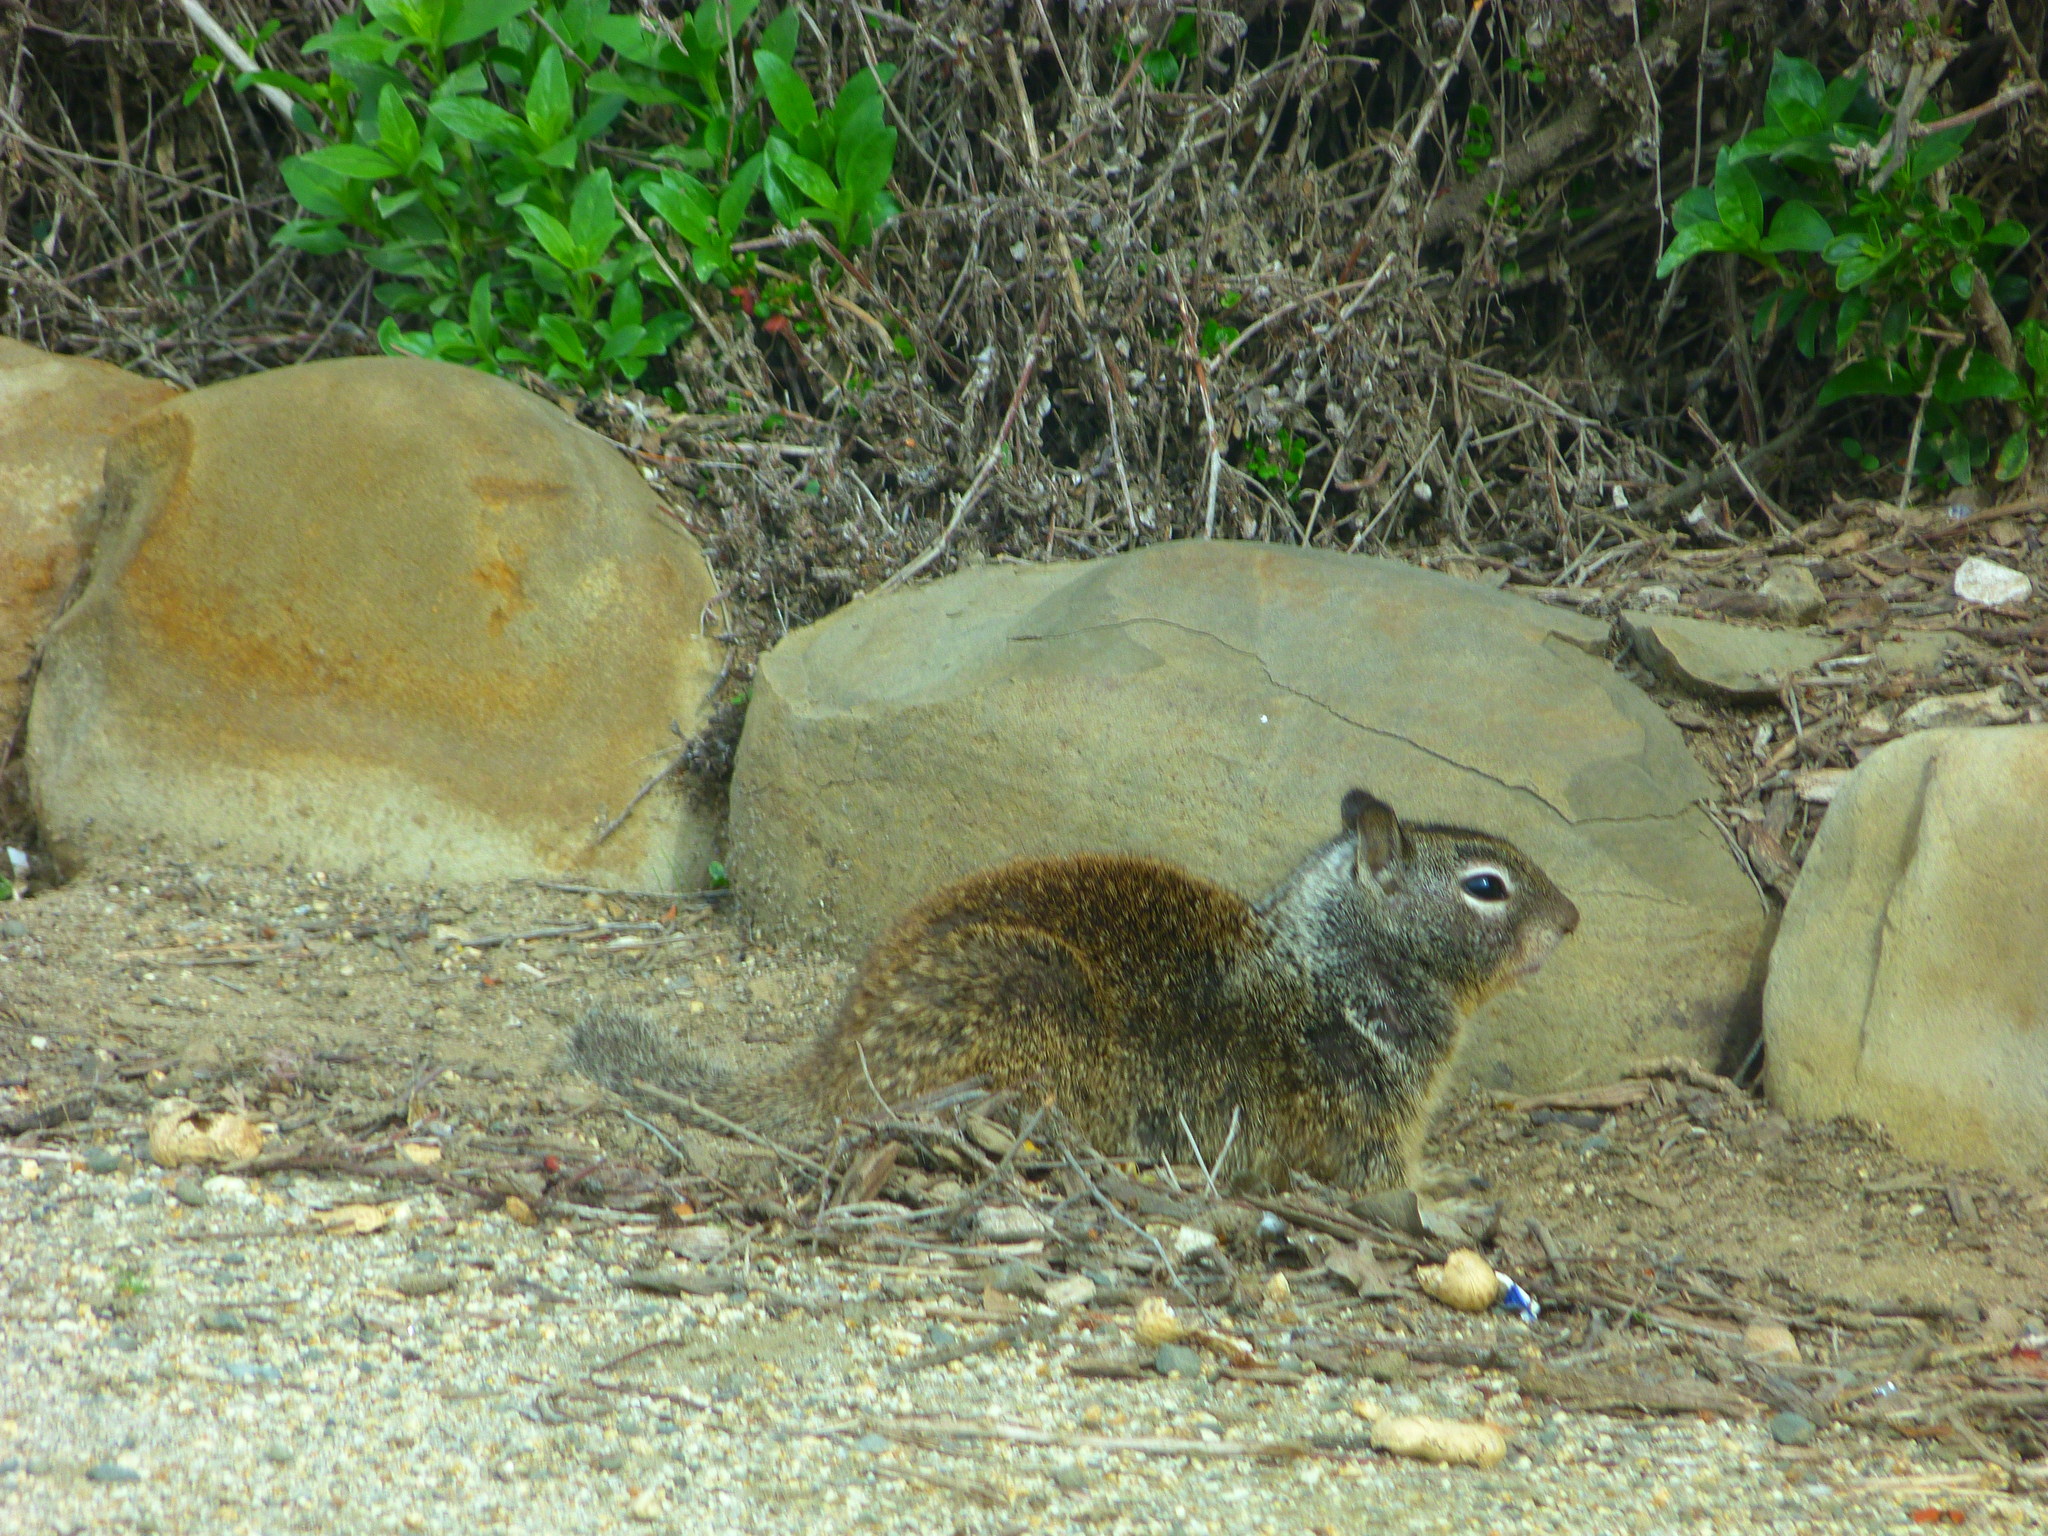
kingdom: Animalia
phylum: Chordata
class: Mammalia
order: Rodentia
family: Sciuridae
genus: Otospermophilus
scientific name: Otospermophilus beecheyi
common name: California ground squirrel
